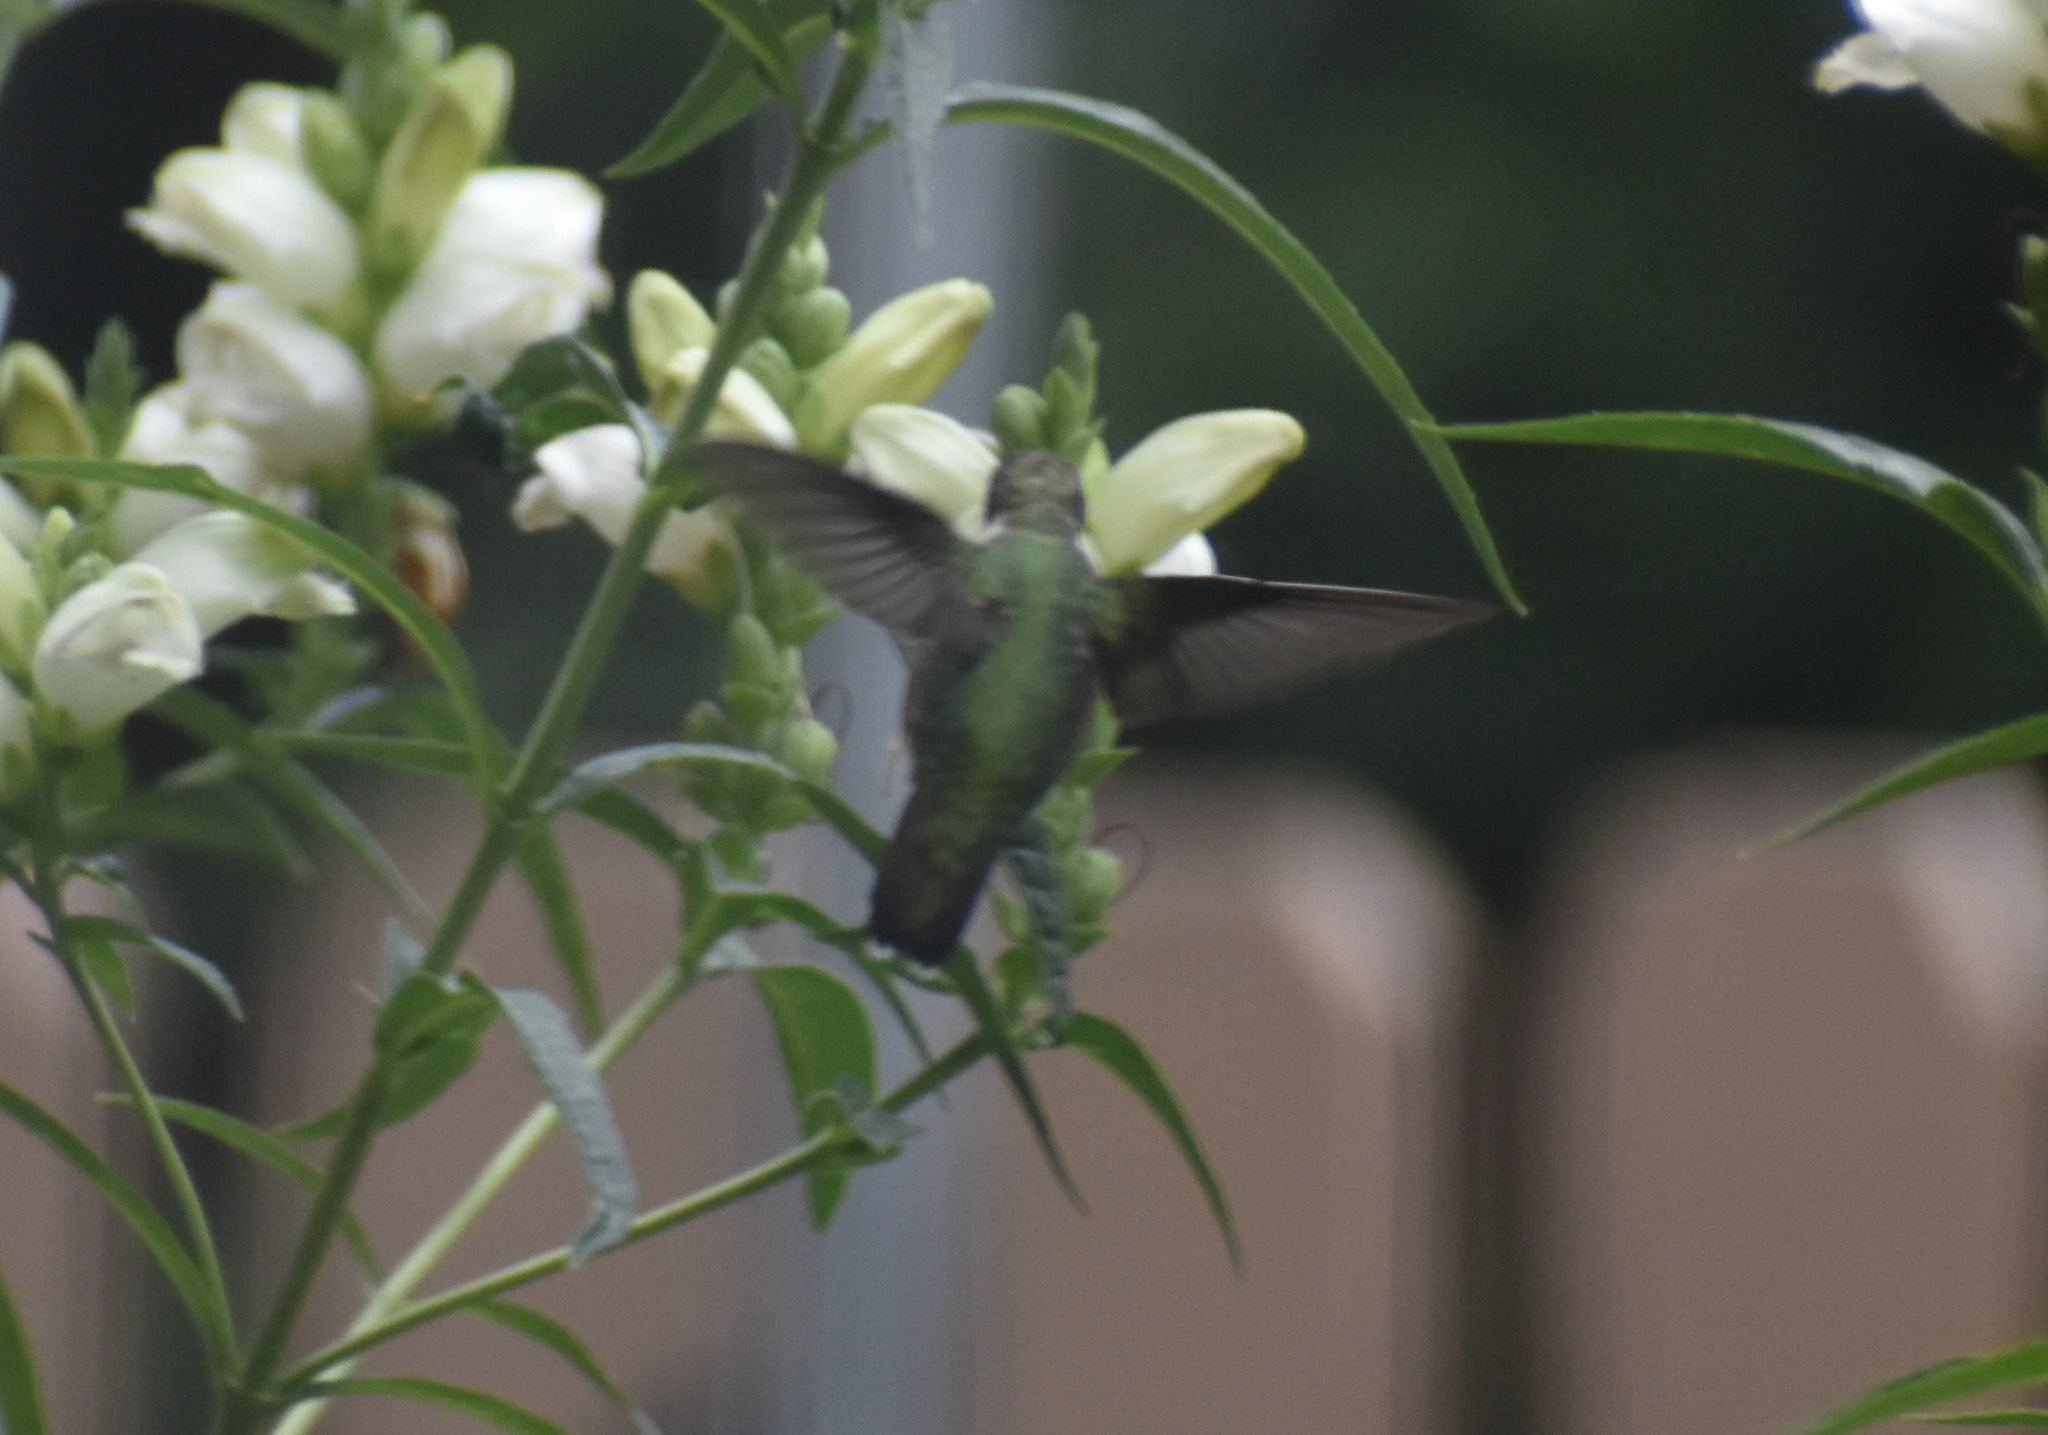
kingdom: Animalia
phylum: Chordata
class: Aves
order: Apodiformes
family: Trochilidae
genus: Archilochus
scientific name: Archilochus colubris
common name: Ruby-throated hummingbird
